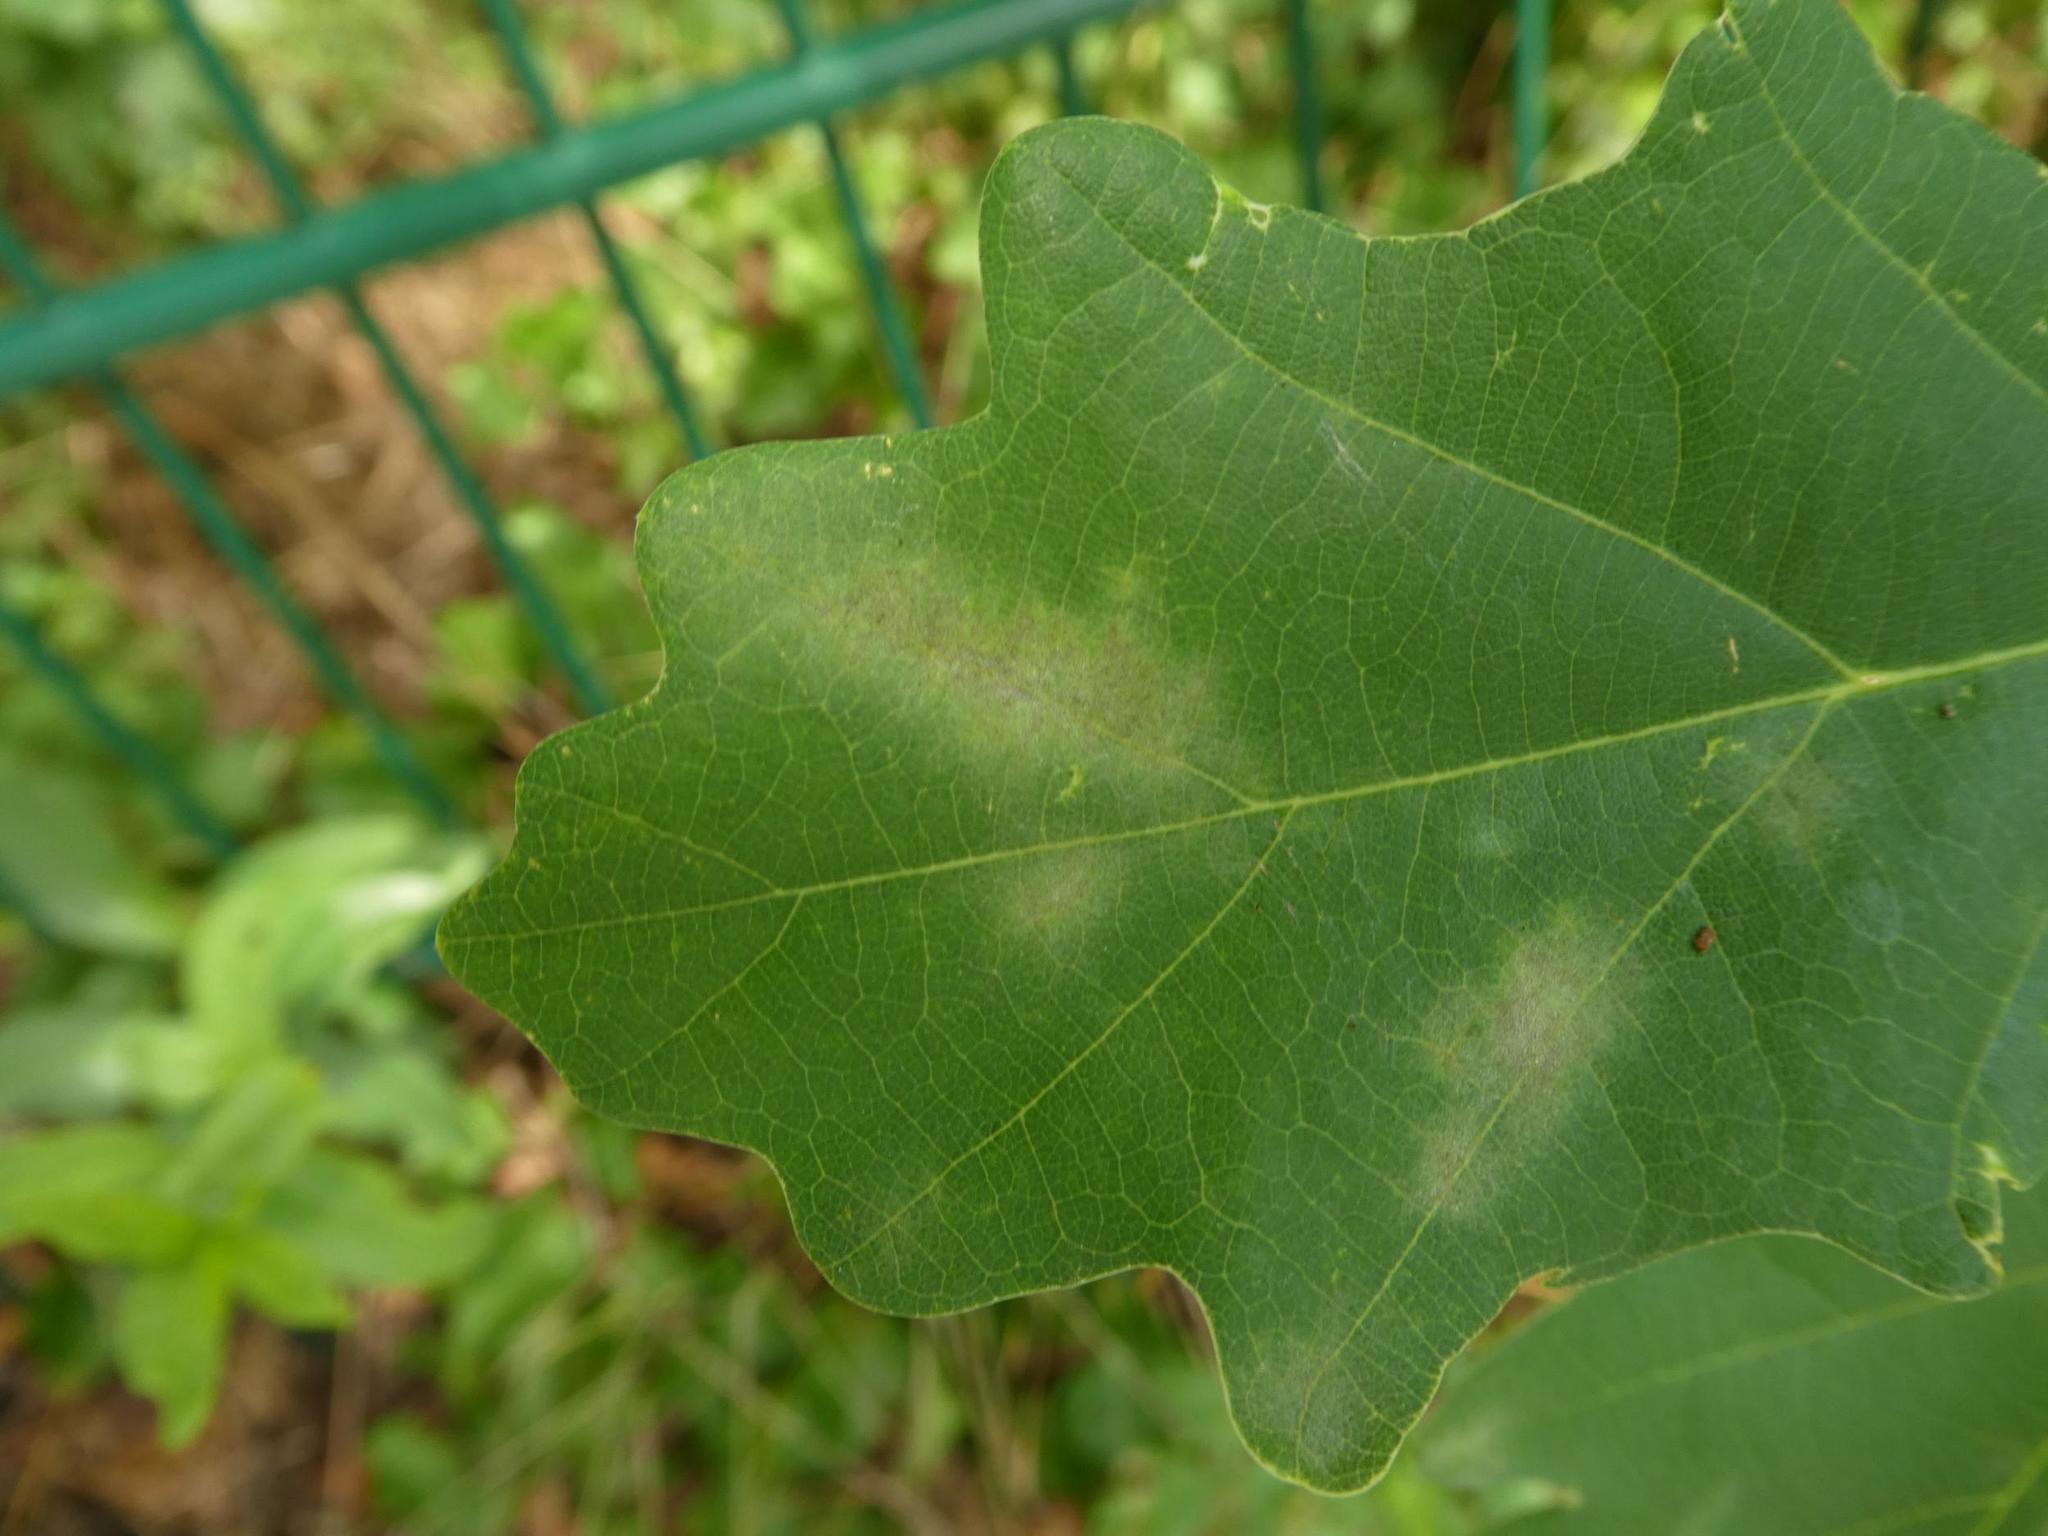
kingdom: Fungi
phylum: Ascomycota
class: Leotiomycetes
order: Helotiales
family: Erysiphaceae
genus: Erysiphe
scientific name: Erysiphe
